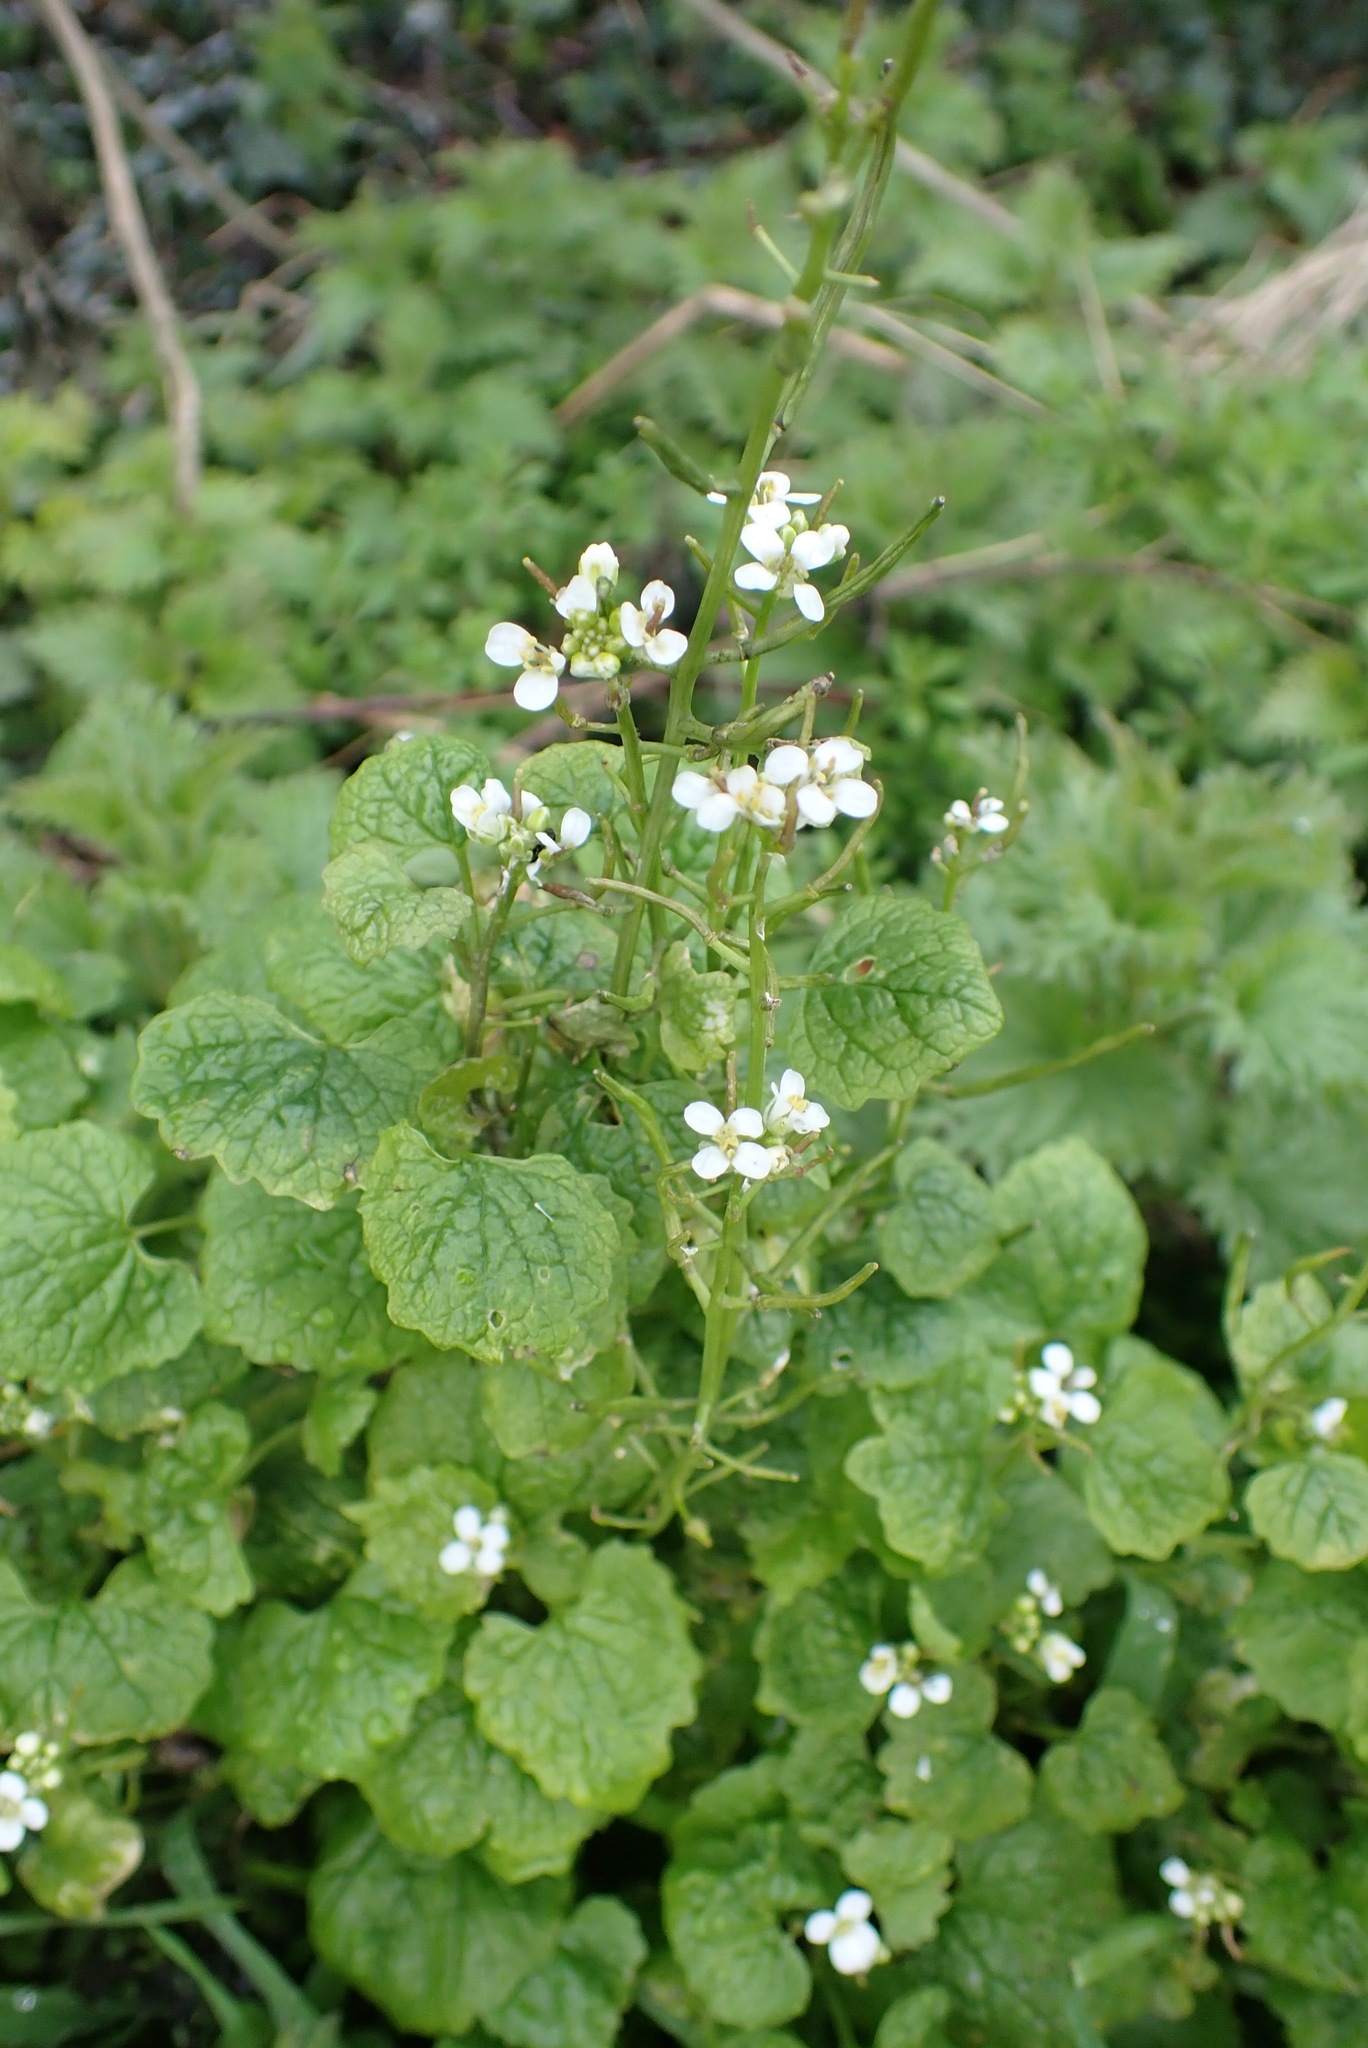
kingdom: Plantae
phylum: Tracheophyta
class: Magnoliopsida
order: Brassicales
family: Brassicaceae
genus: Alliaria
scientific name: Alliaria petiolata
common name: Garlic mustard
